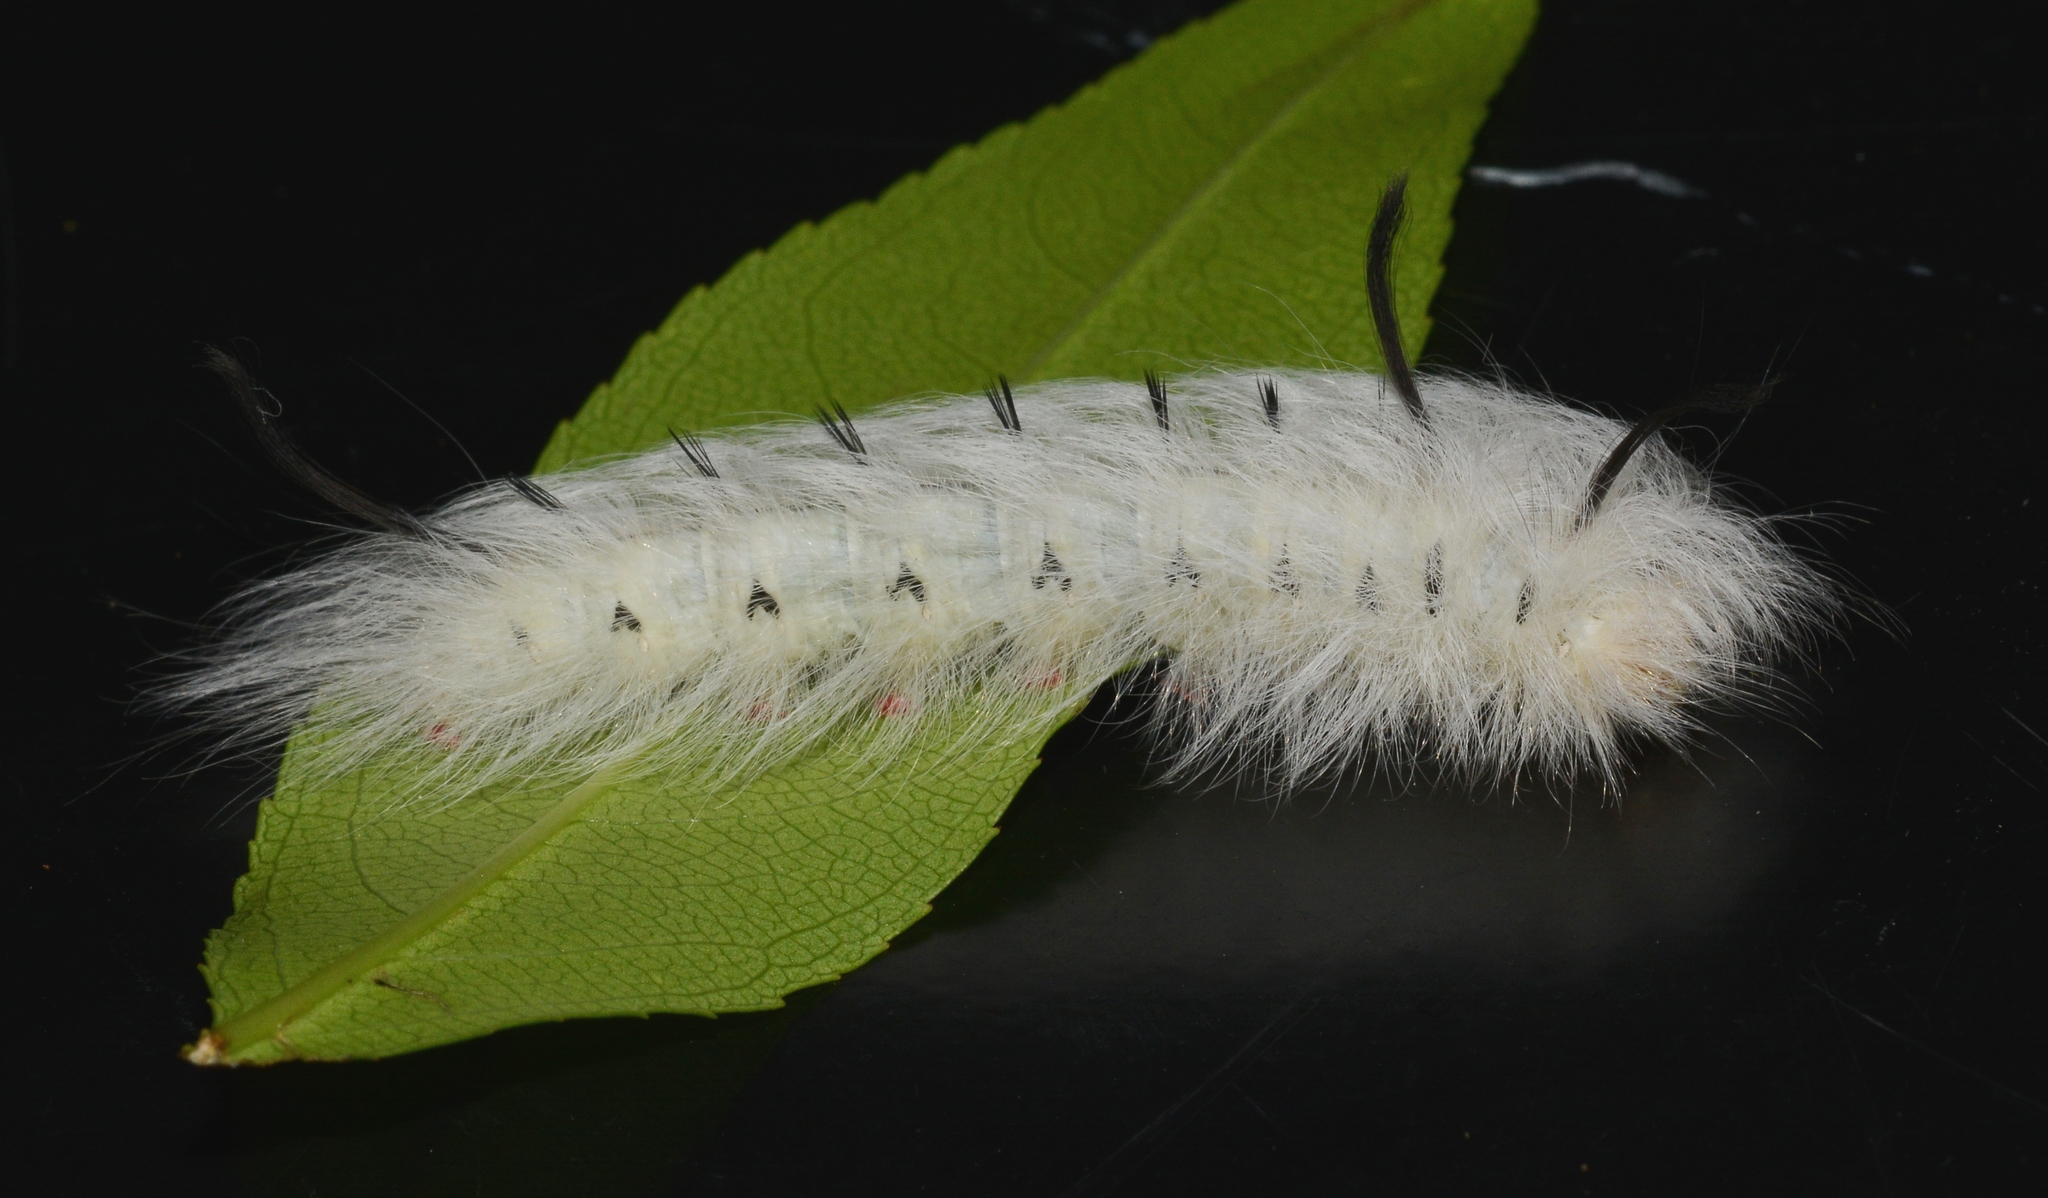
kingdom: Animalia
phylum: Arthropoda
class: Insecta
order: Lepidoptera
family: Apatelodidae
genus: Hygrochroa
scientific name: Hygrochroa Apatelodes torrefacta
